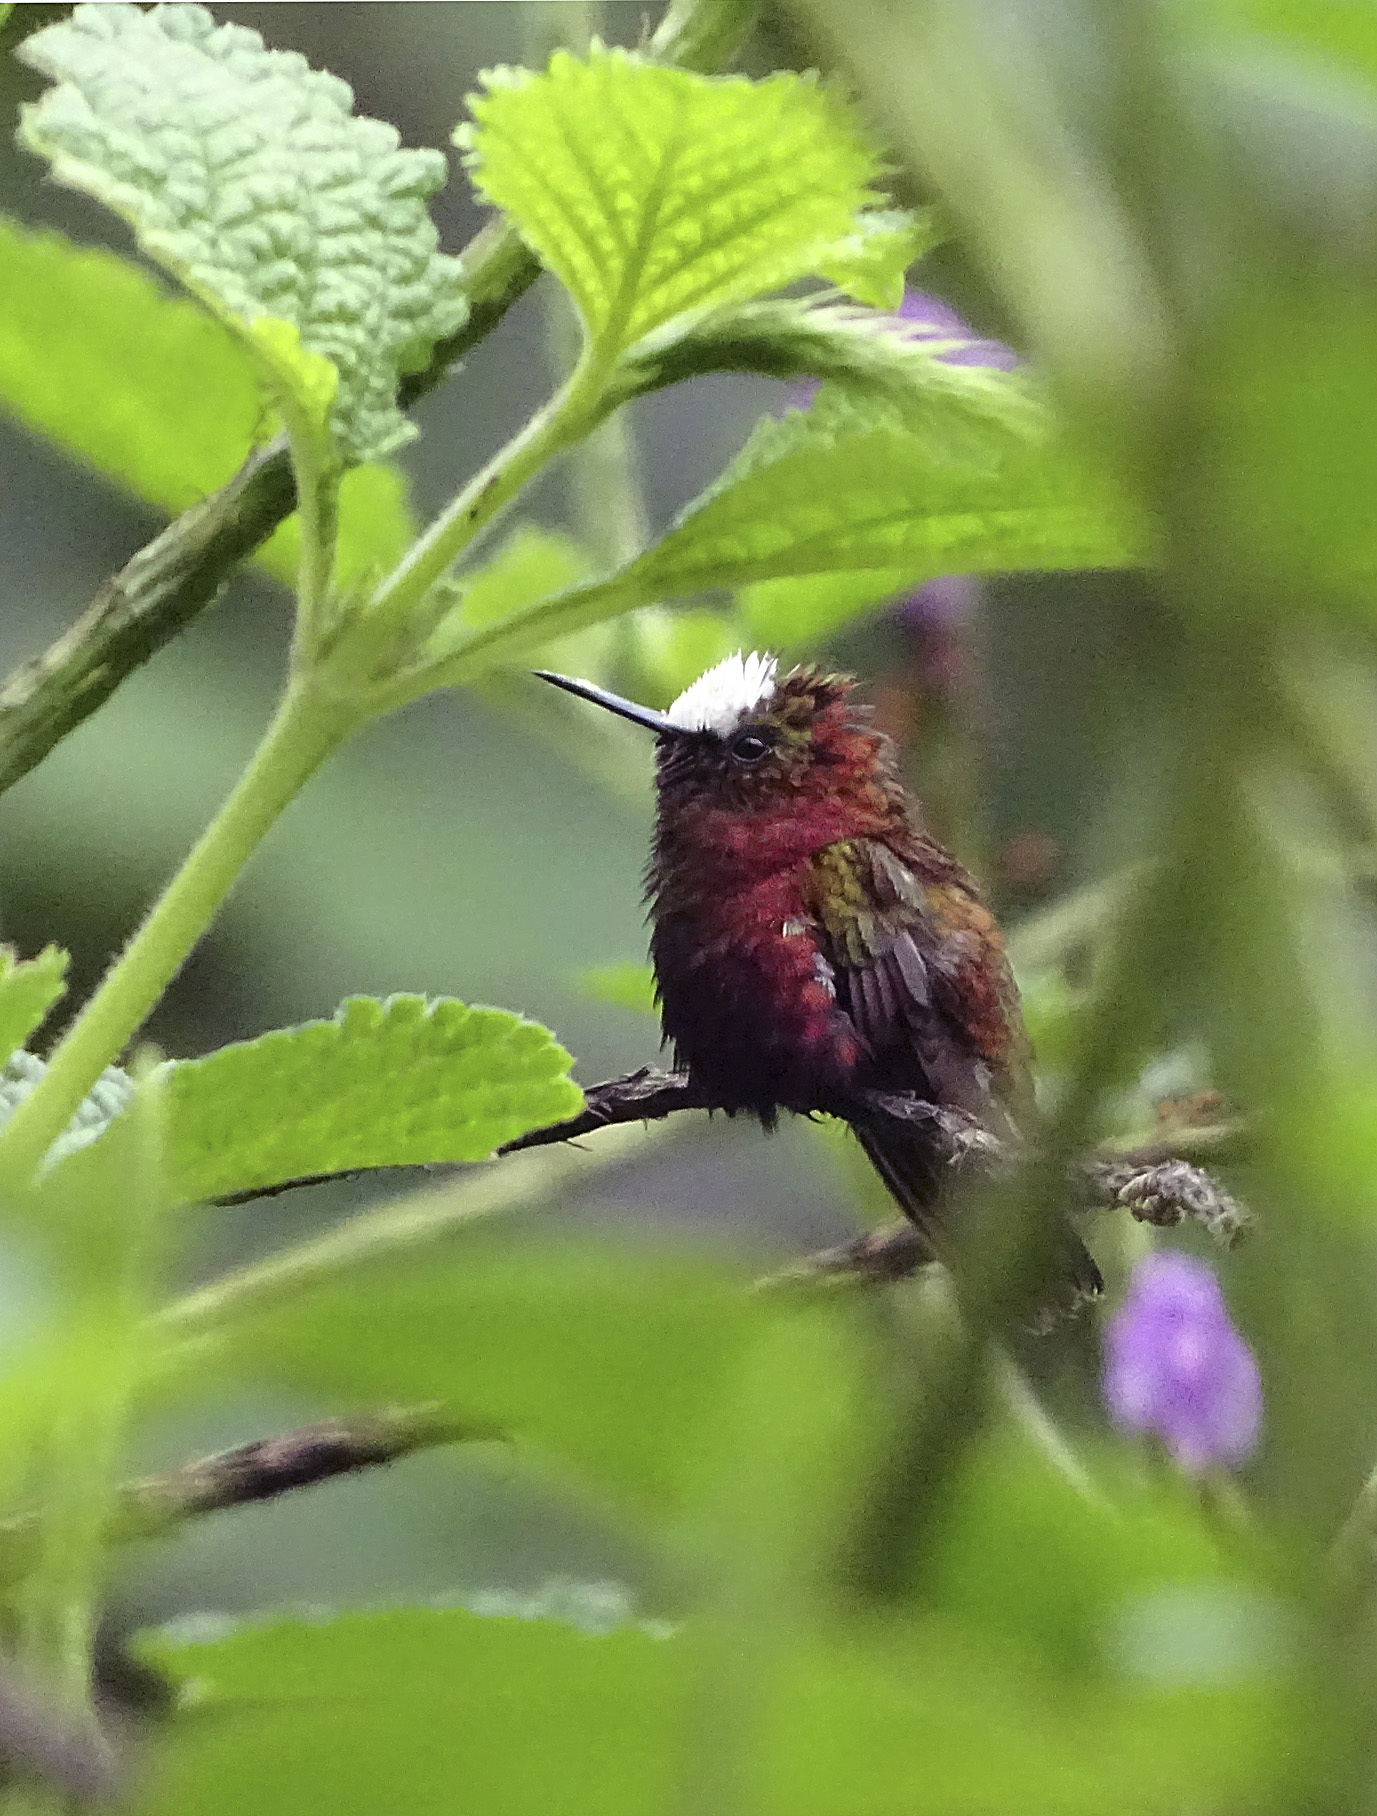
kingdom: Animalia
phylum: Chordata
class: Aves
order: Apodiformes
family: Trochilidae
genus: Microchera
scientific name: Microchera albocoronata
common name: Snowcap
